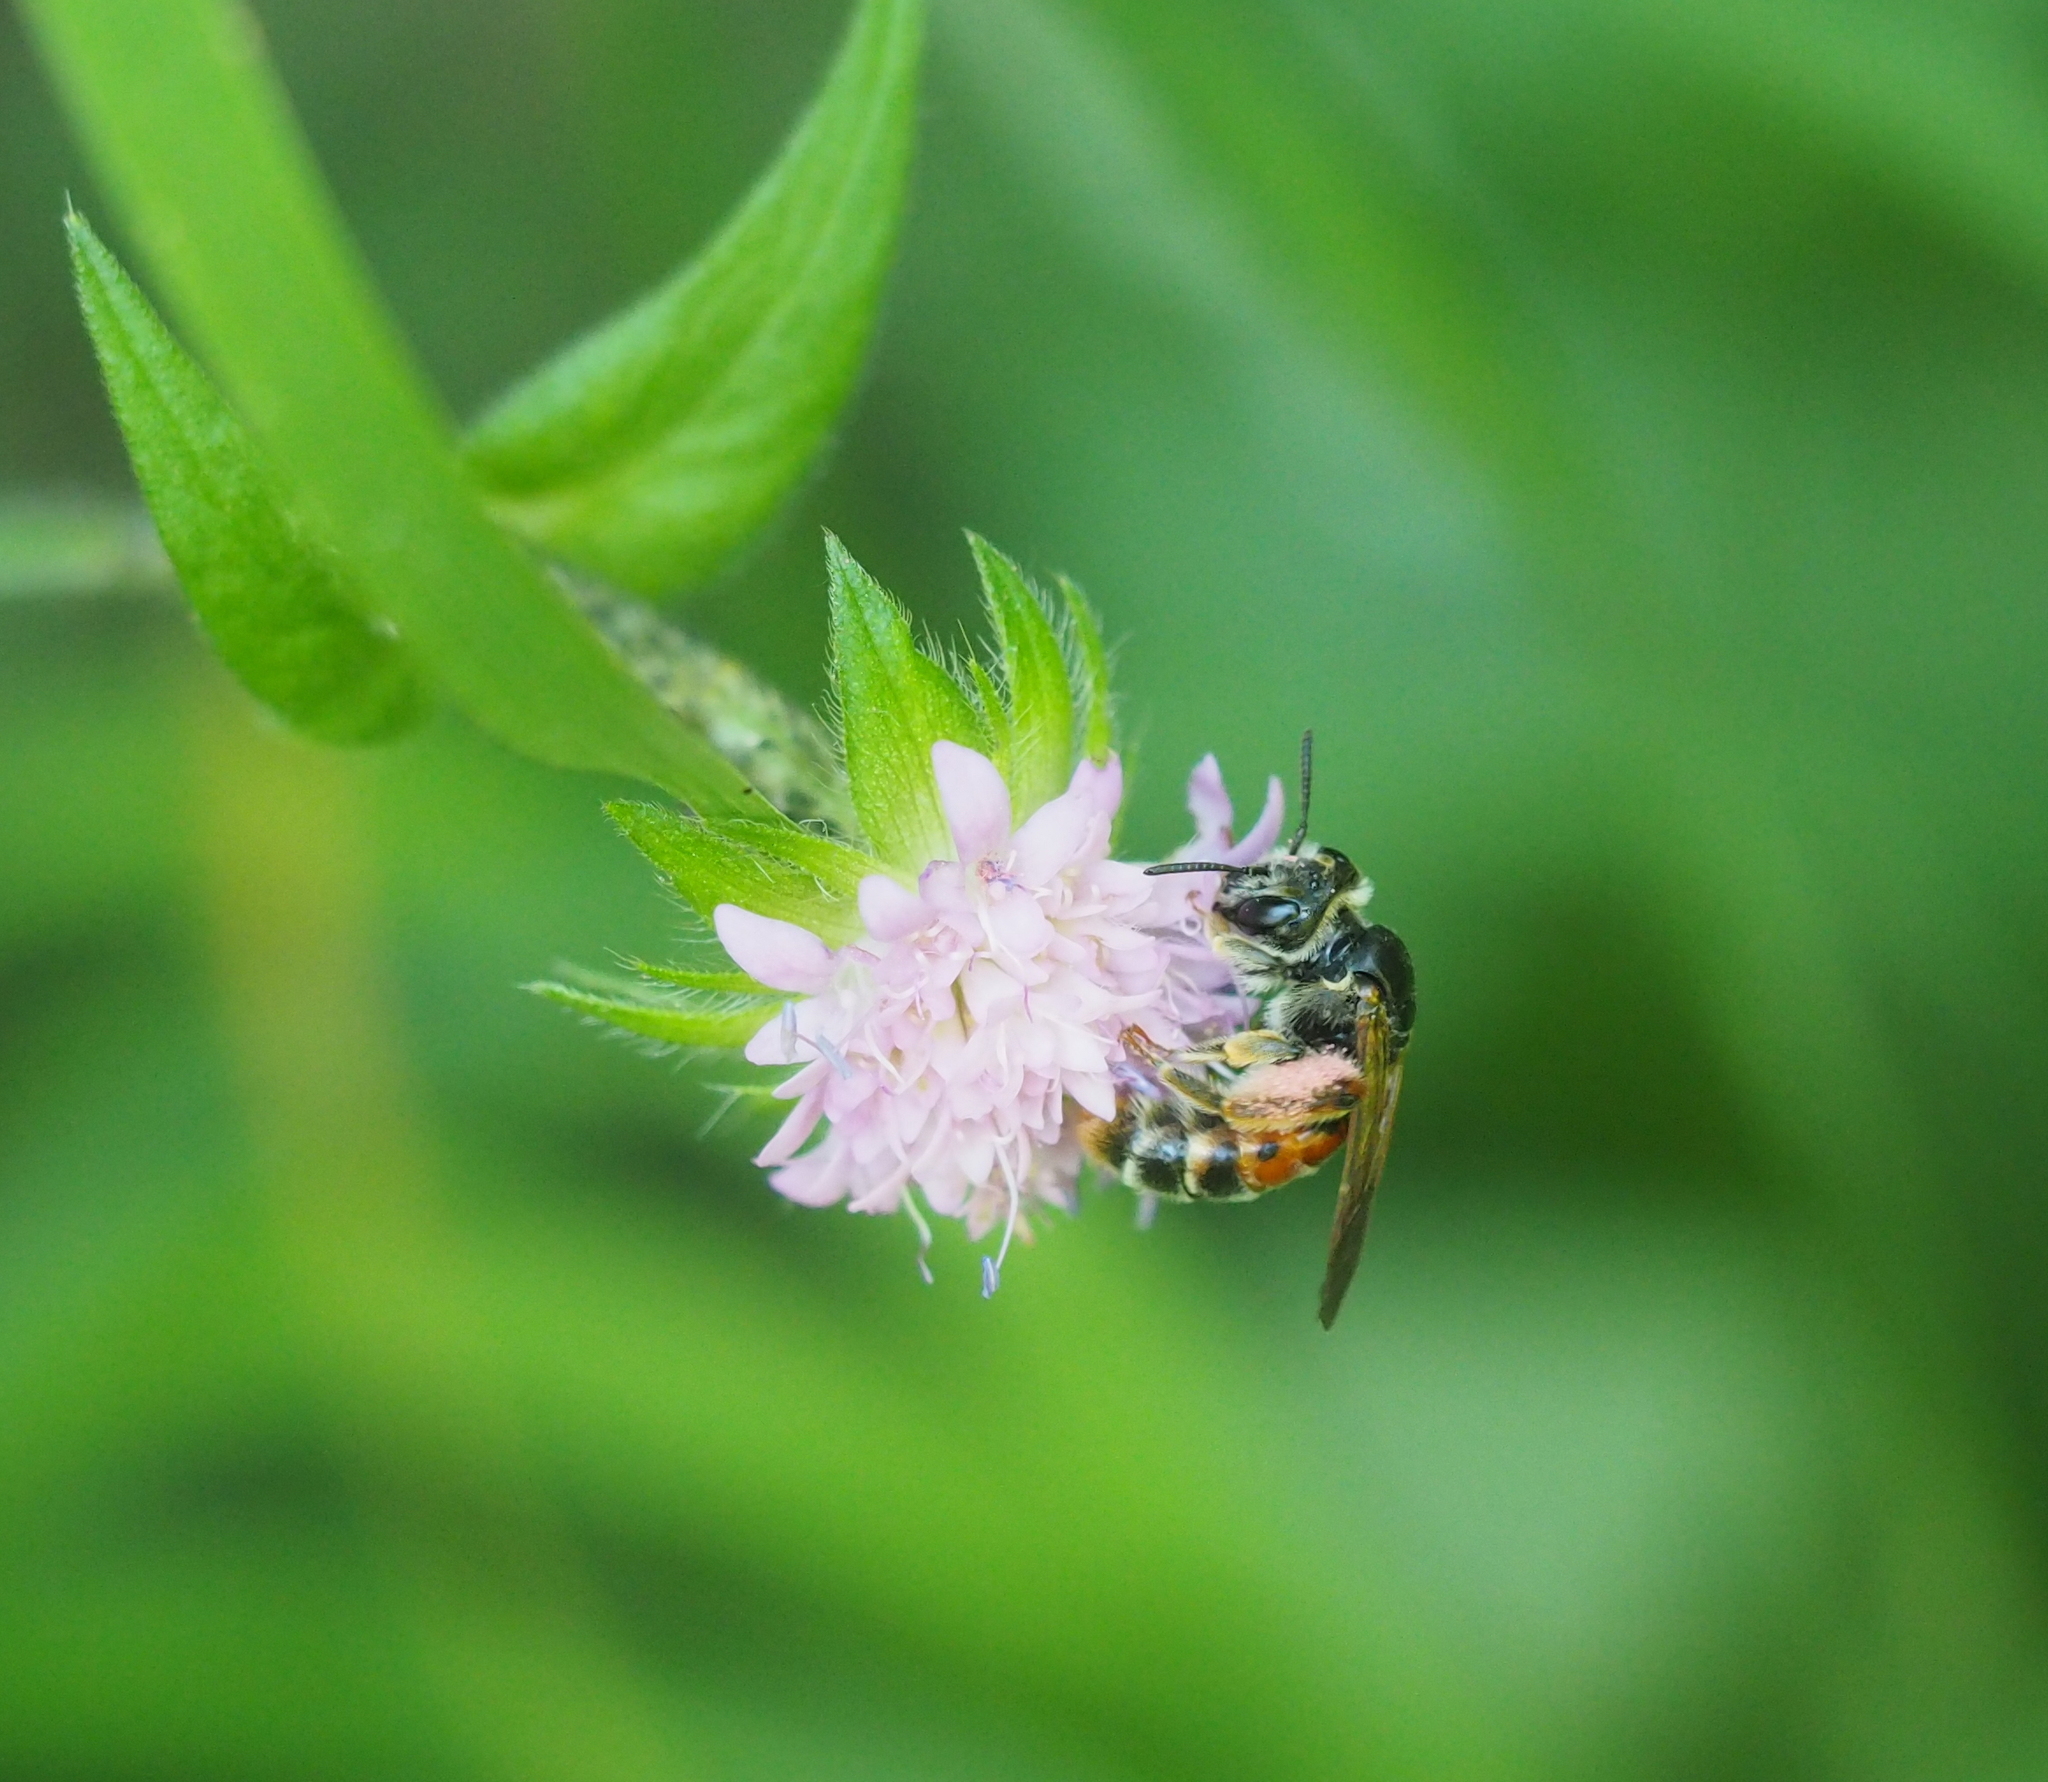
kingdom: Animalia
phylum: Arthropoda
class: Insecta
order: Hymenoptera
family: Andrenidae
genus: Andrena
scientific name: Andrena hattorfiana
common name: Large scabious mining bee
